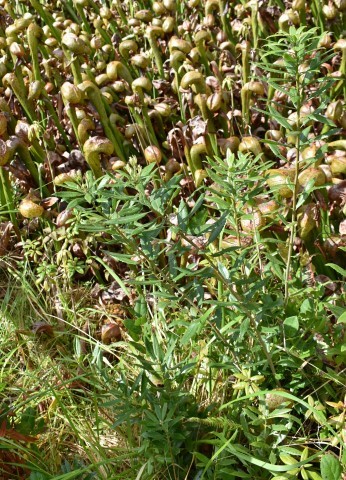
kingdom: Plantae
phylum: Tracheophyta
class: Magnoliopsida
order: Ericales
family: Ericaceae
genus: Rhododendron
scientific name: Rhododendron columbianum
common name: Western labrador tea
